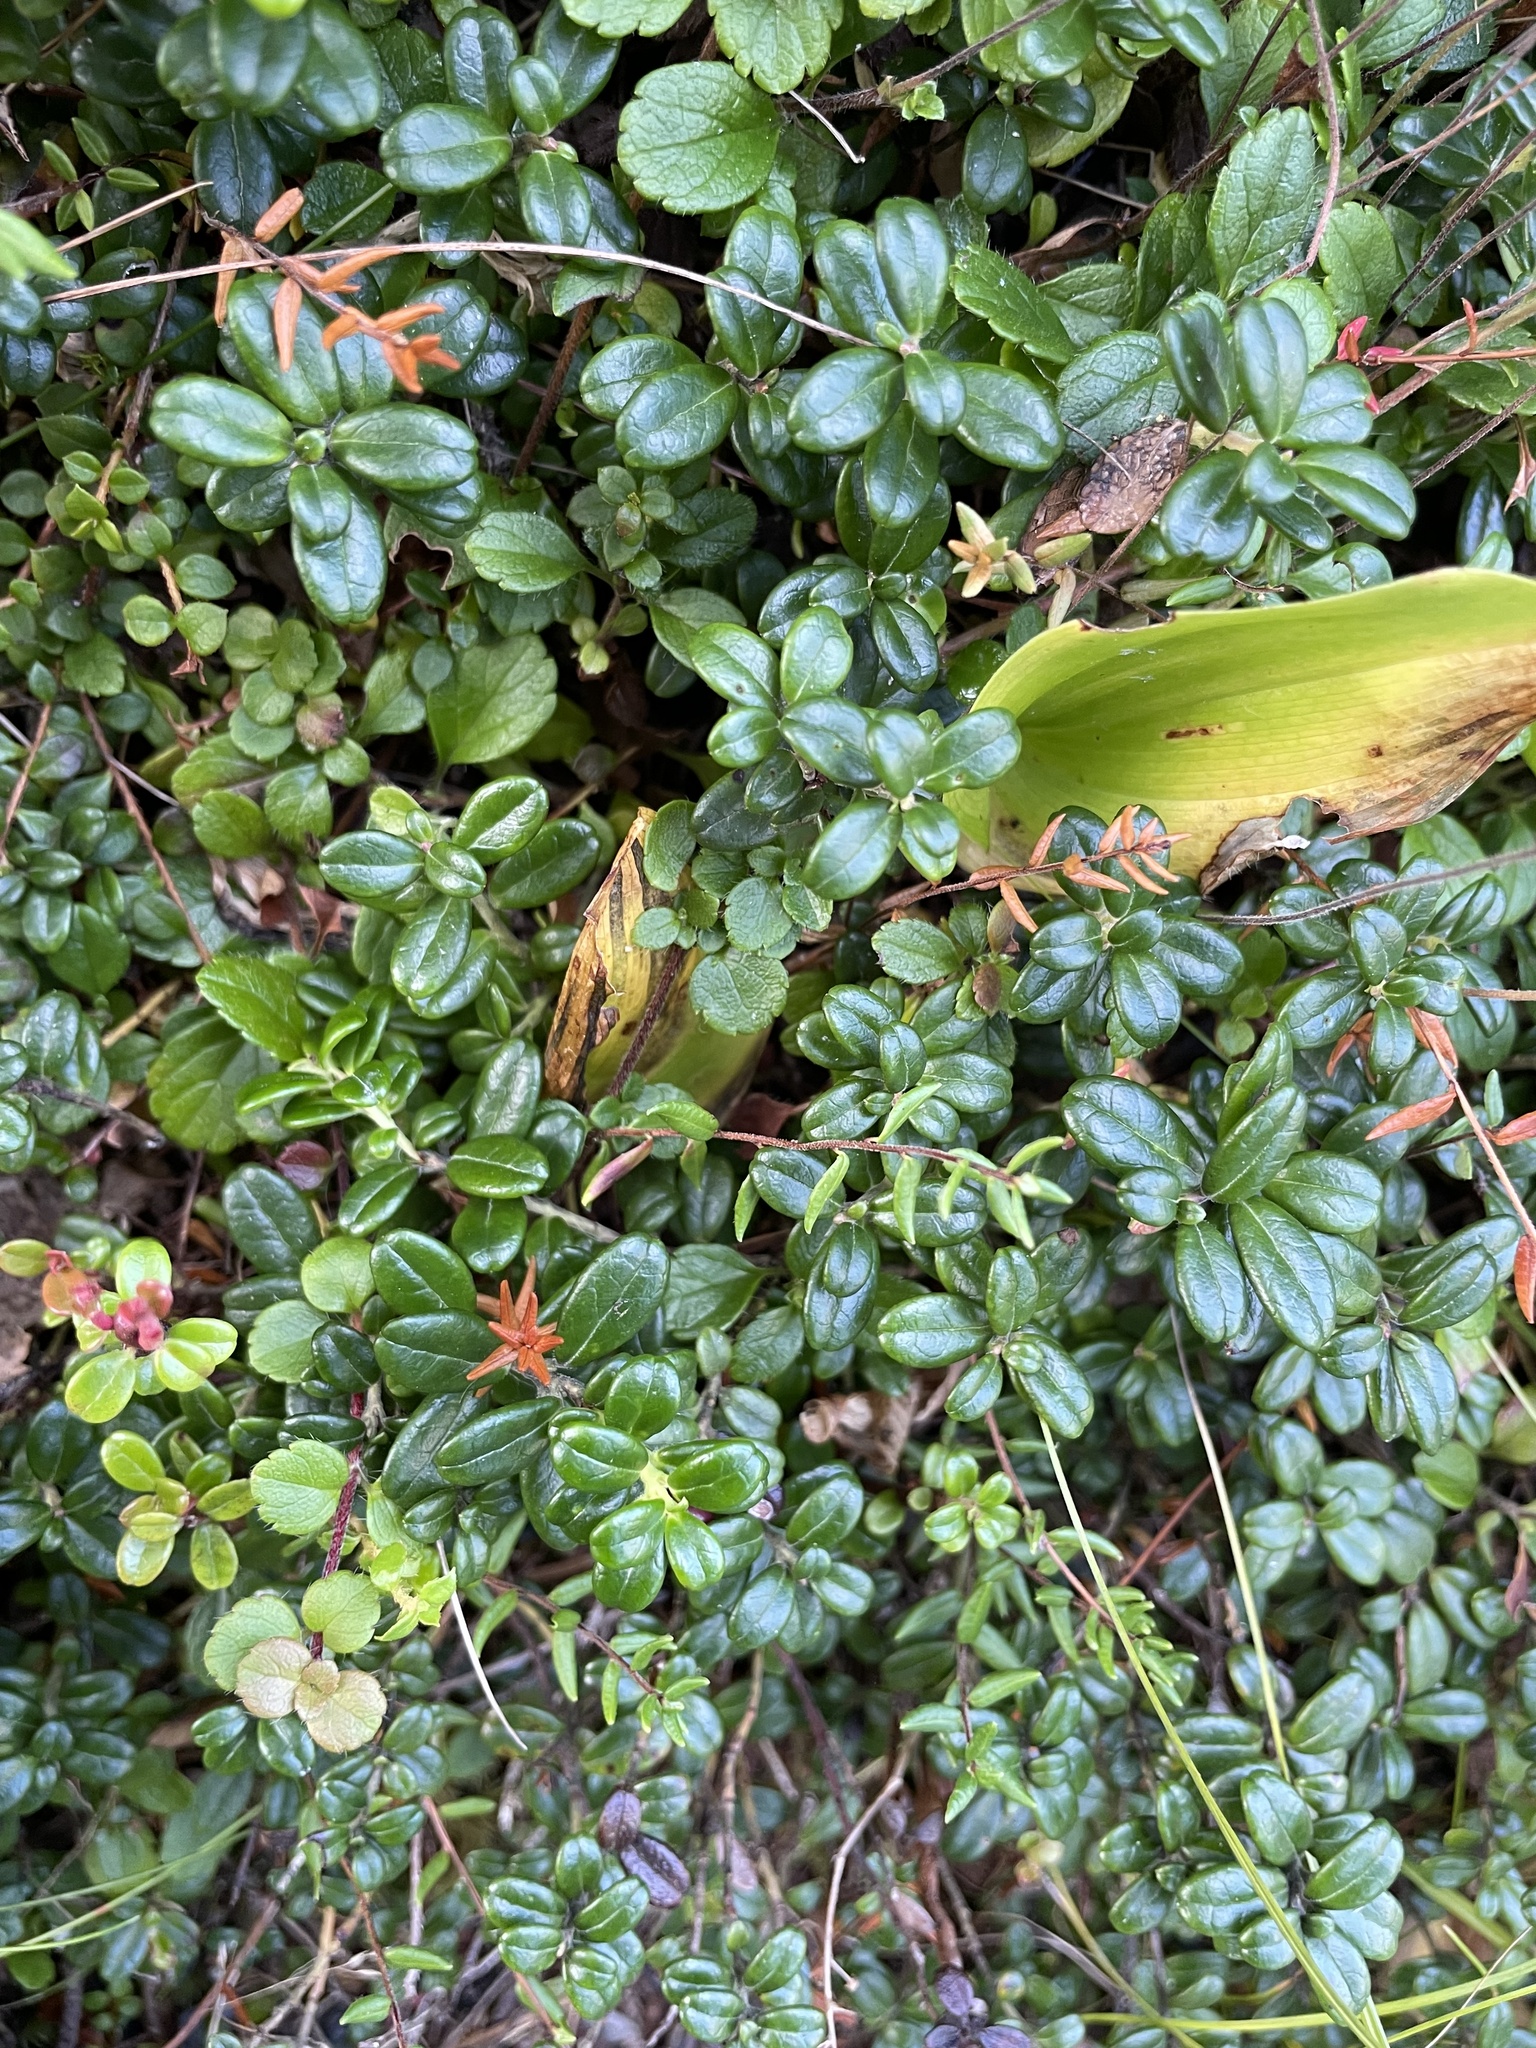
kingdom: Plantae
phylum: Tracheophyta
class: Magnoliopsida
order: Ericales
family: Ericaceae
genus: Vaccinium
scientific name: Vaccinium vitis-idaea
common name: Cowberry
